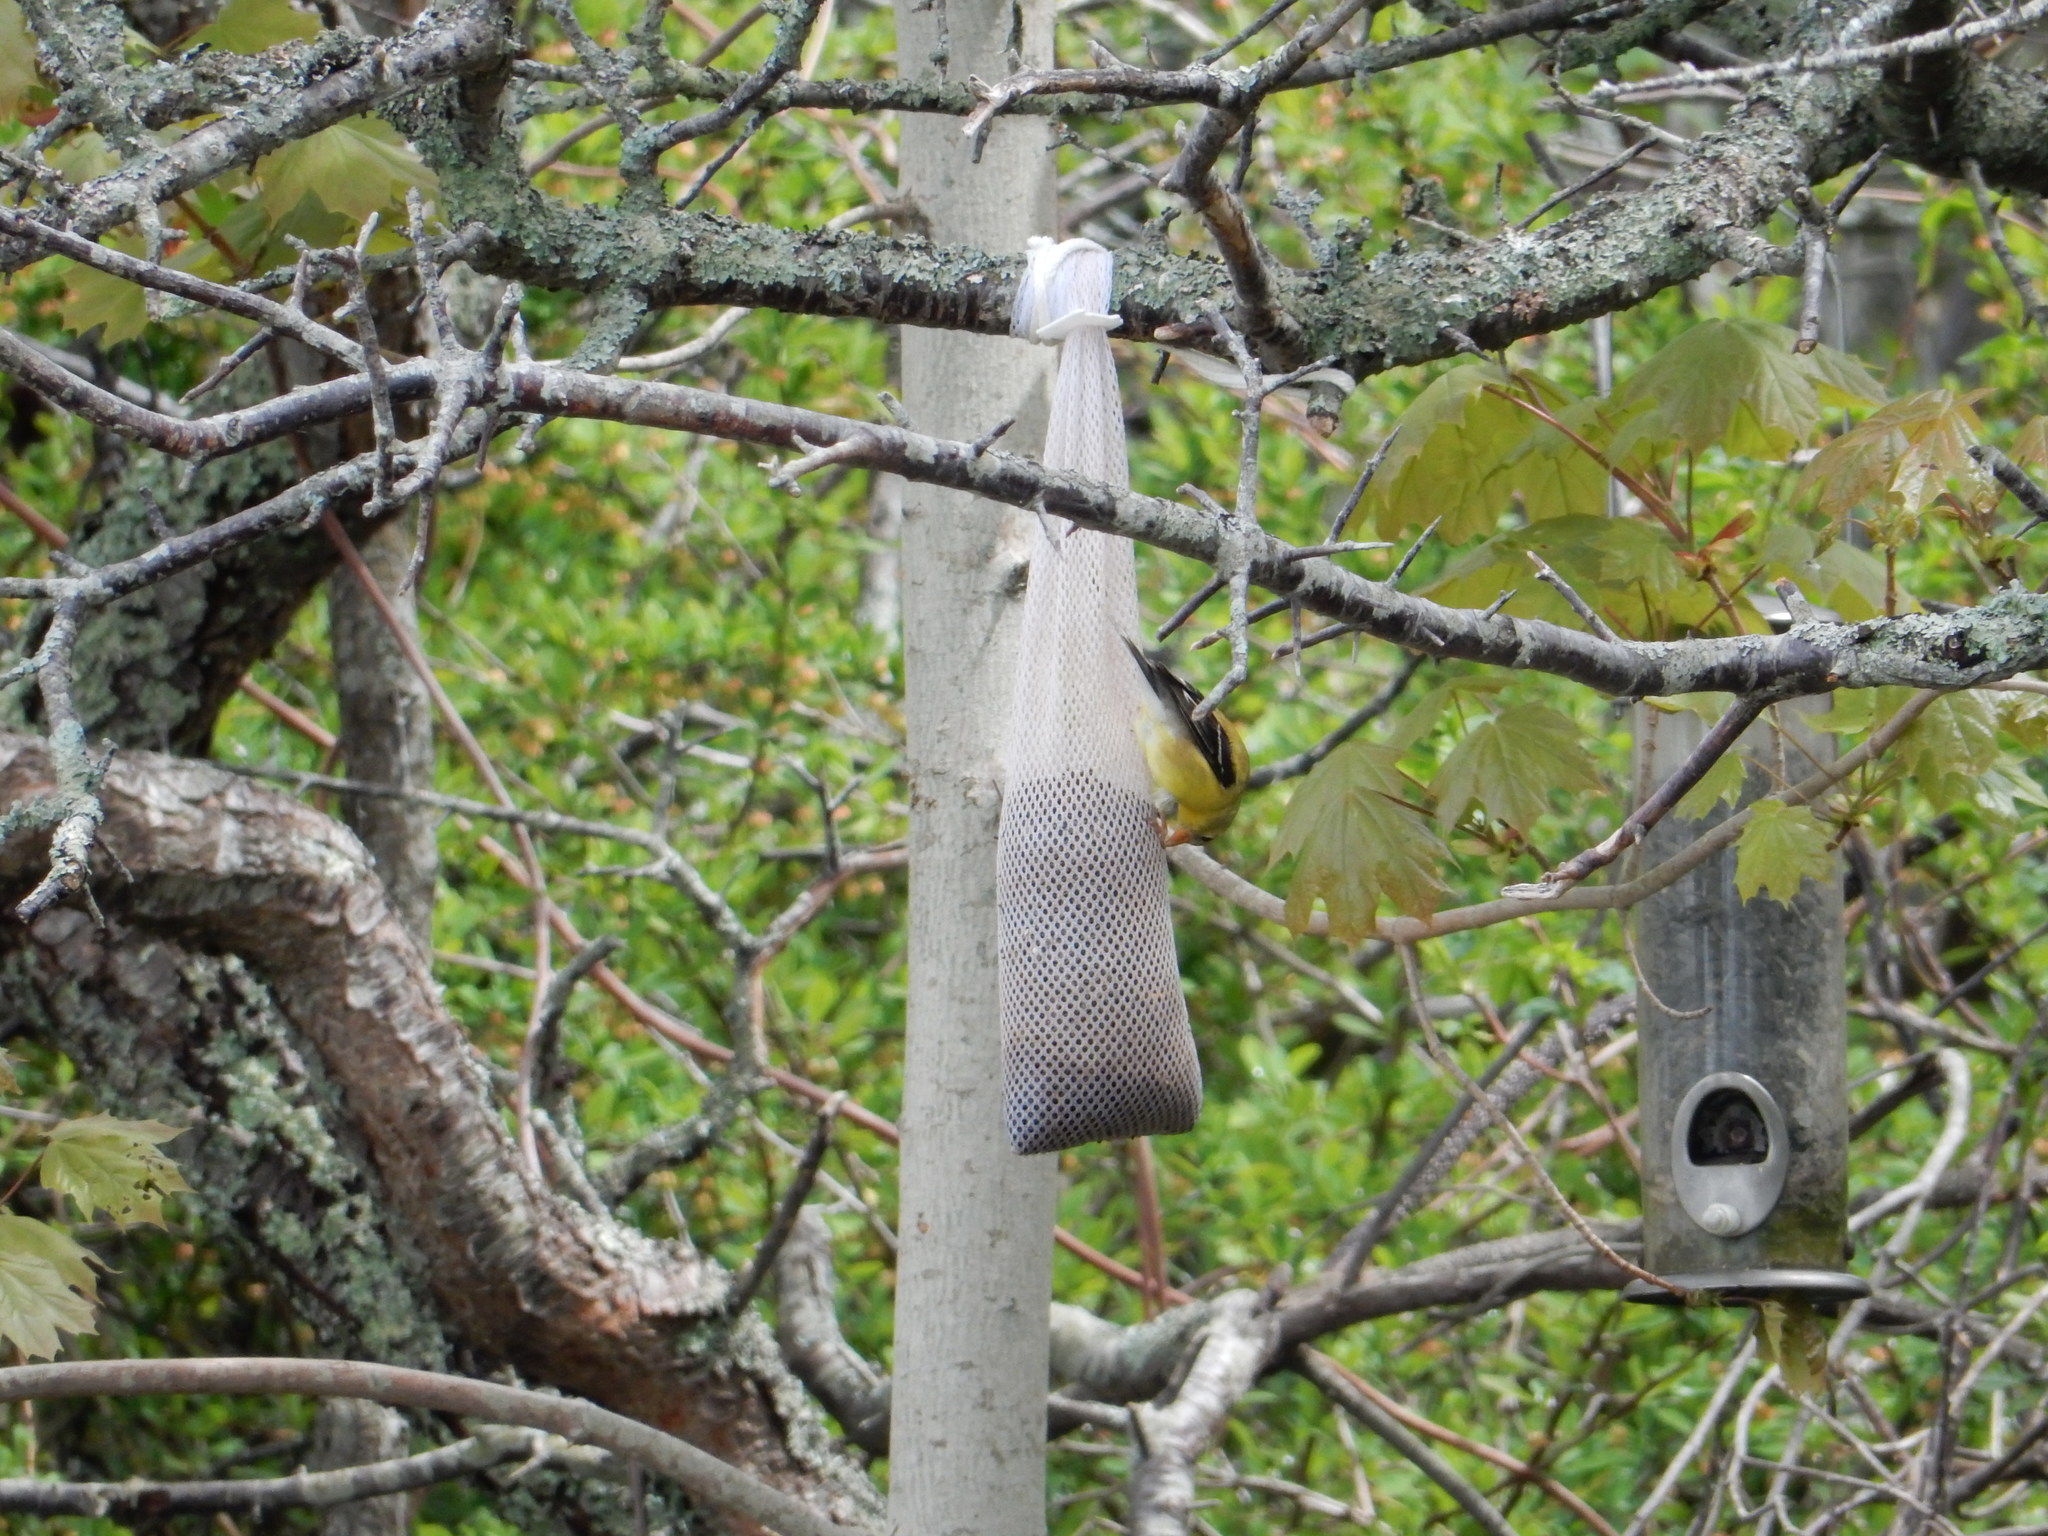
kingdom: Animalia
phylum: Chordata
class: Aves
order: Passeriformes
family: Fringillidae
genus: Spinus
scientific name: Spinus tristis
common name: American goldfinch
